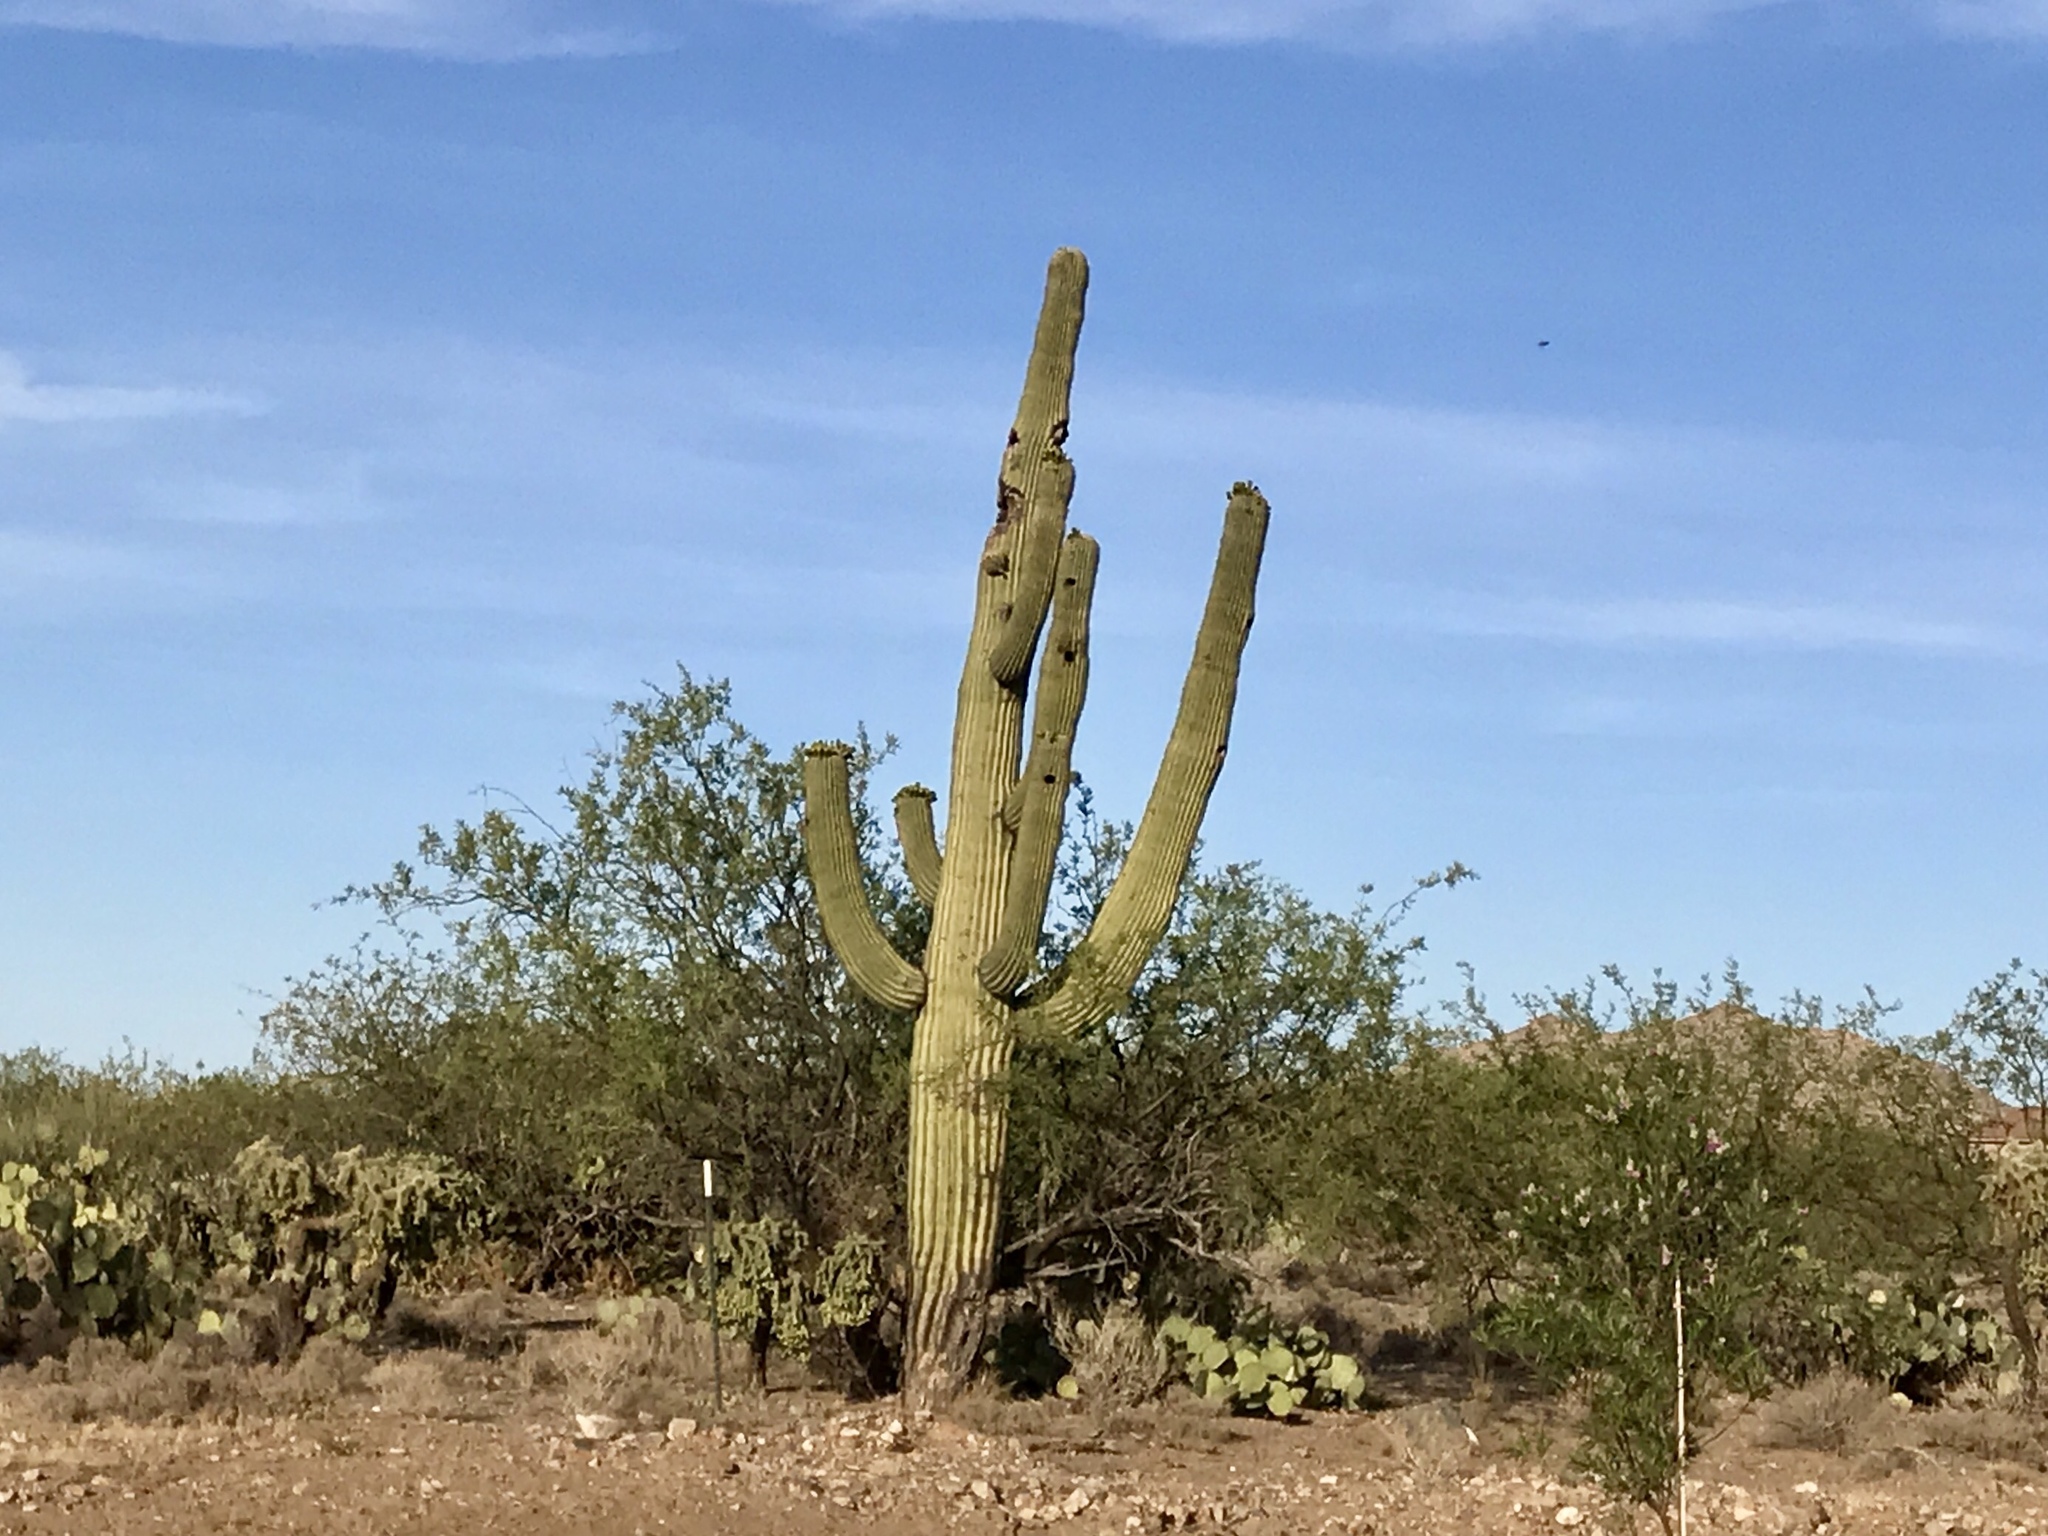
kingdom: Plantae
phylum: Tracheophyta
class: Magnoliopsida
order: Caryophyllales
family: Cactaceae
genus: Carnegiea
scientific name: Carnegiea gigantea
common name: Saguaro
